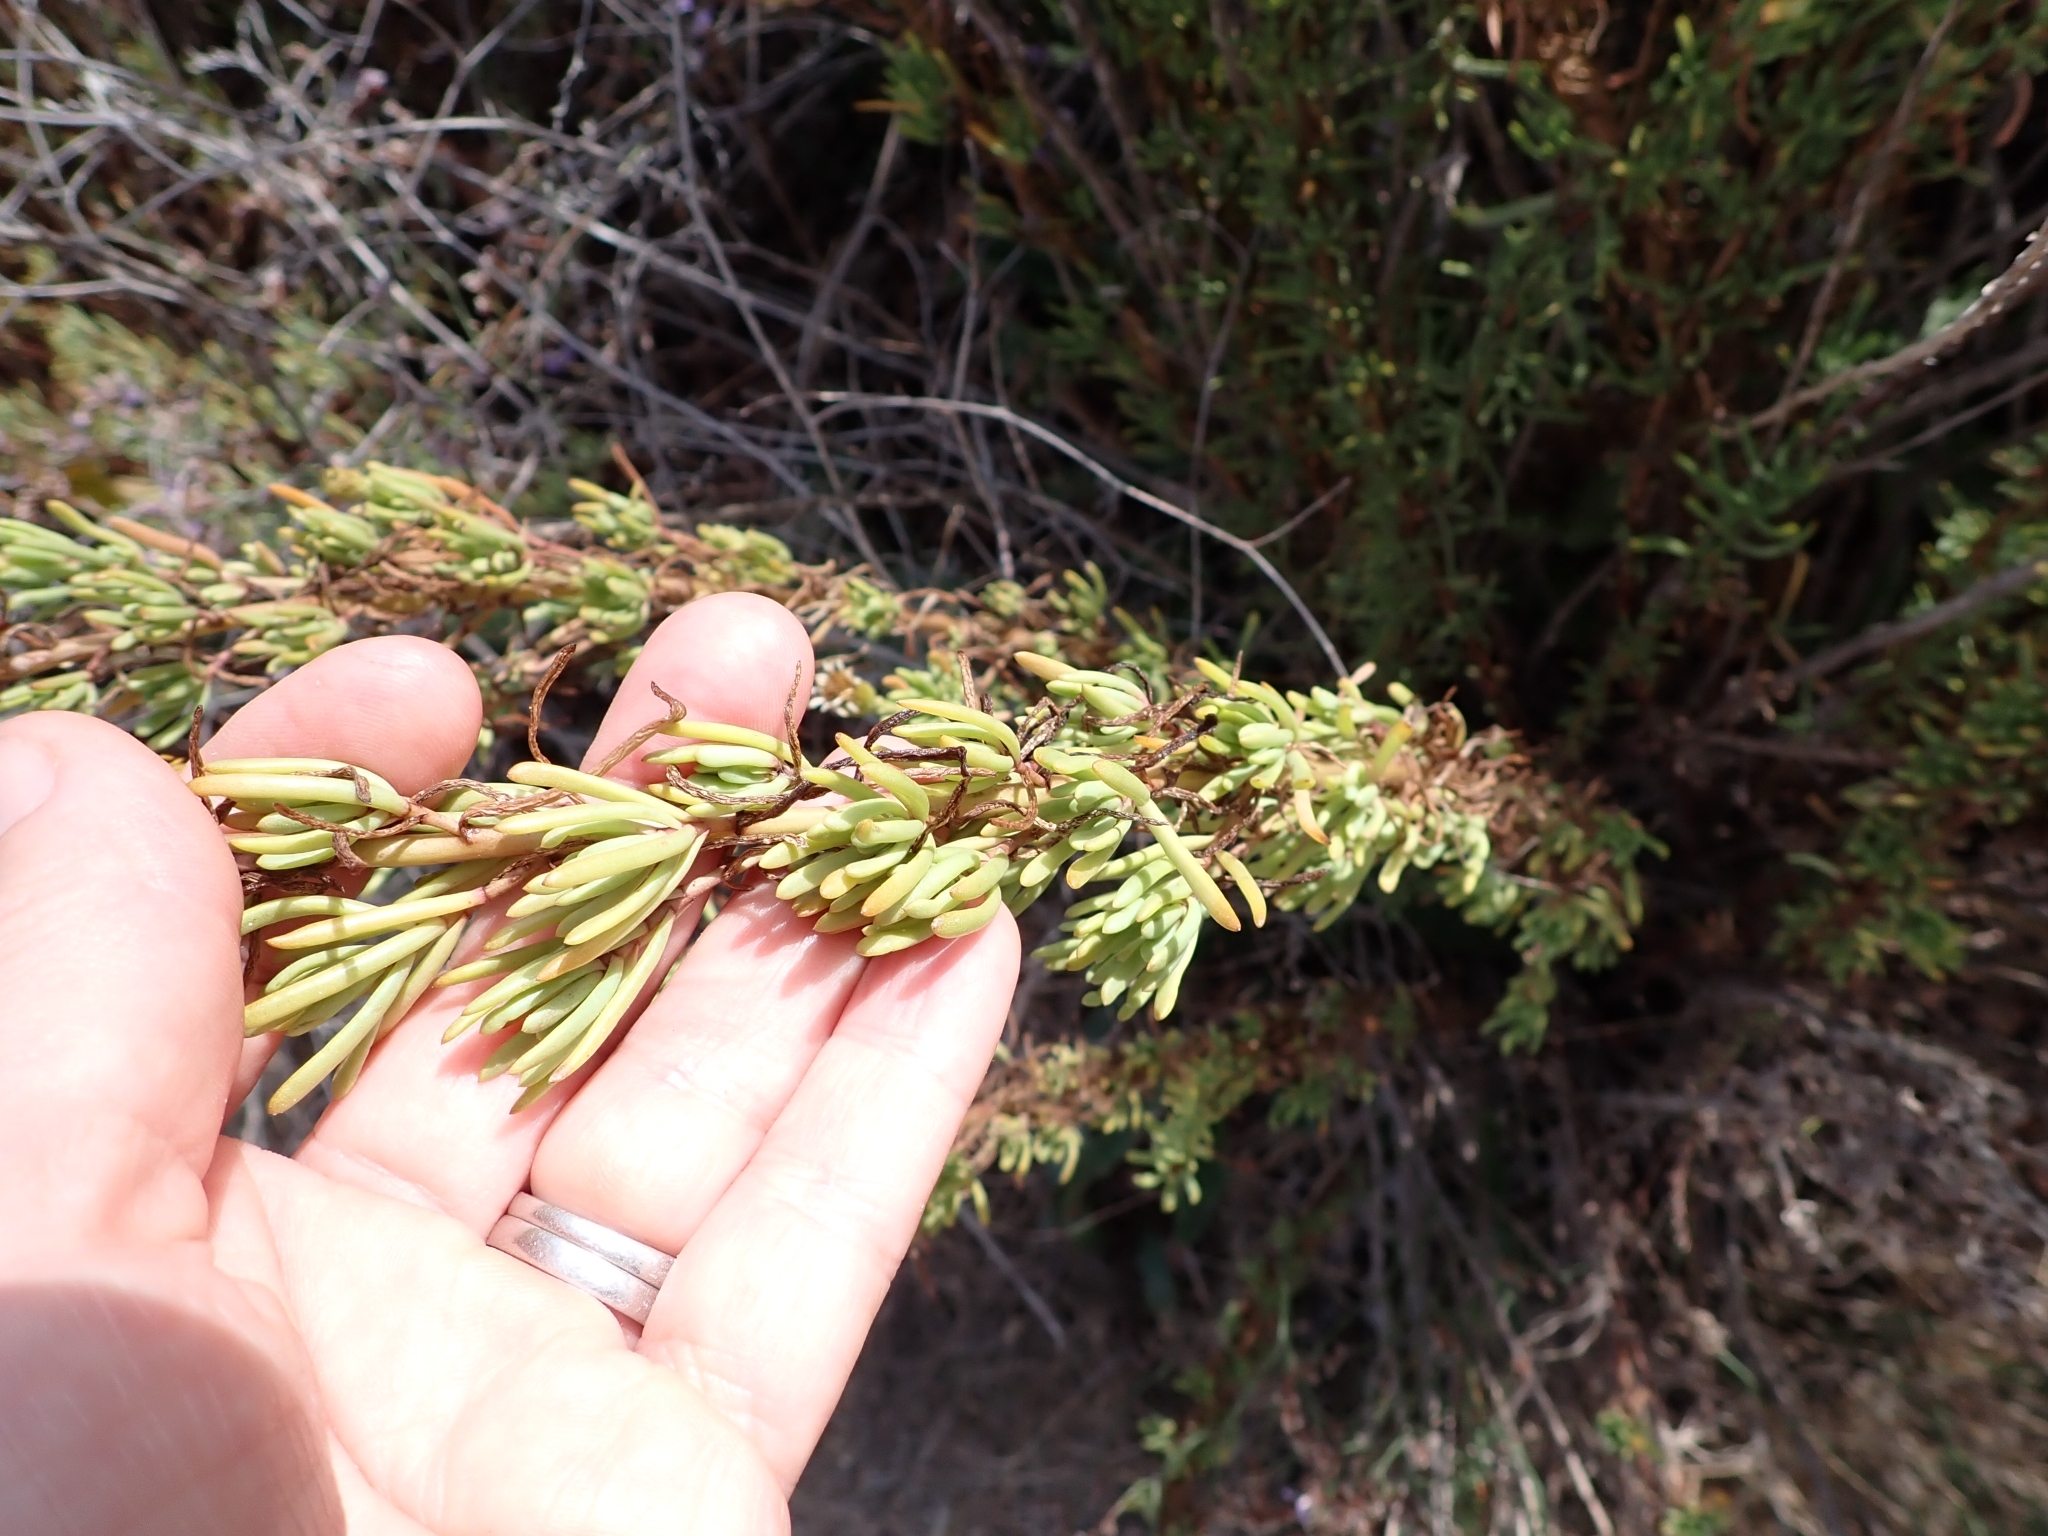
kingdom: Plantae
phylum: Tracheophyta
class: Magnoliopsida
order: Asterales
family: Asteraceae
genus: Limbarda
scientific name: Limbarda crithmoides
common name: Golden samphire
